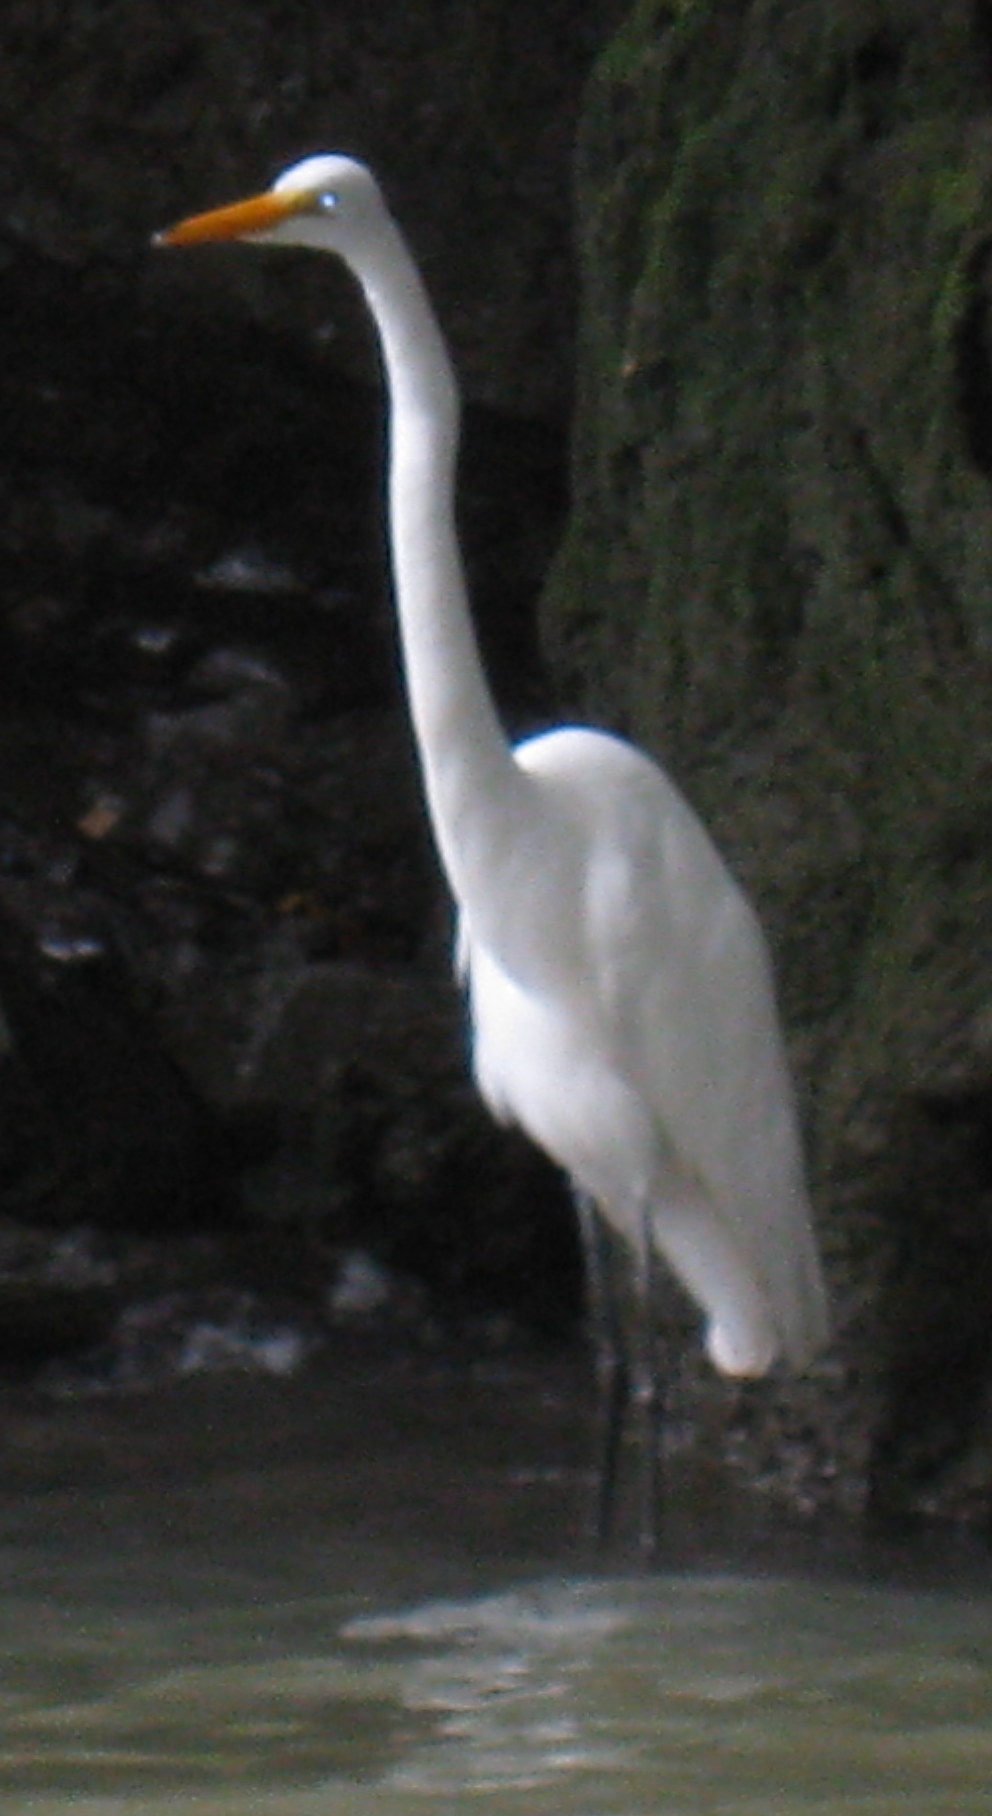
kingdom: Animalia
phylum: Chordata
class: Aves
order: Pelecaniformes
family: Ardeidae
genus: Ardea
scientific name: Ardea alba
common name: Great egret
